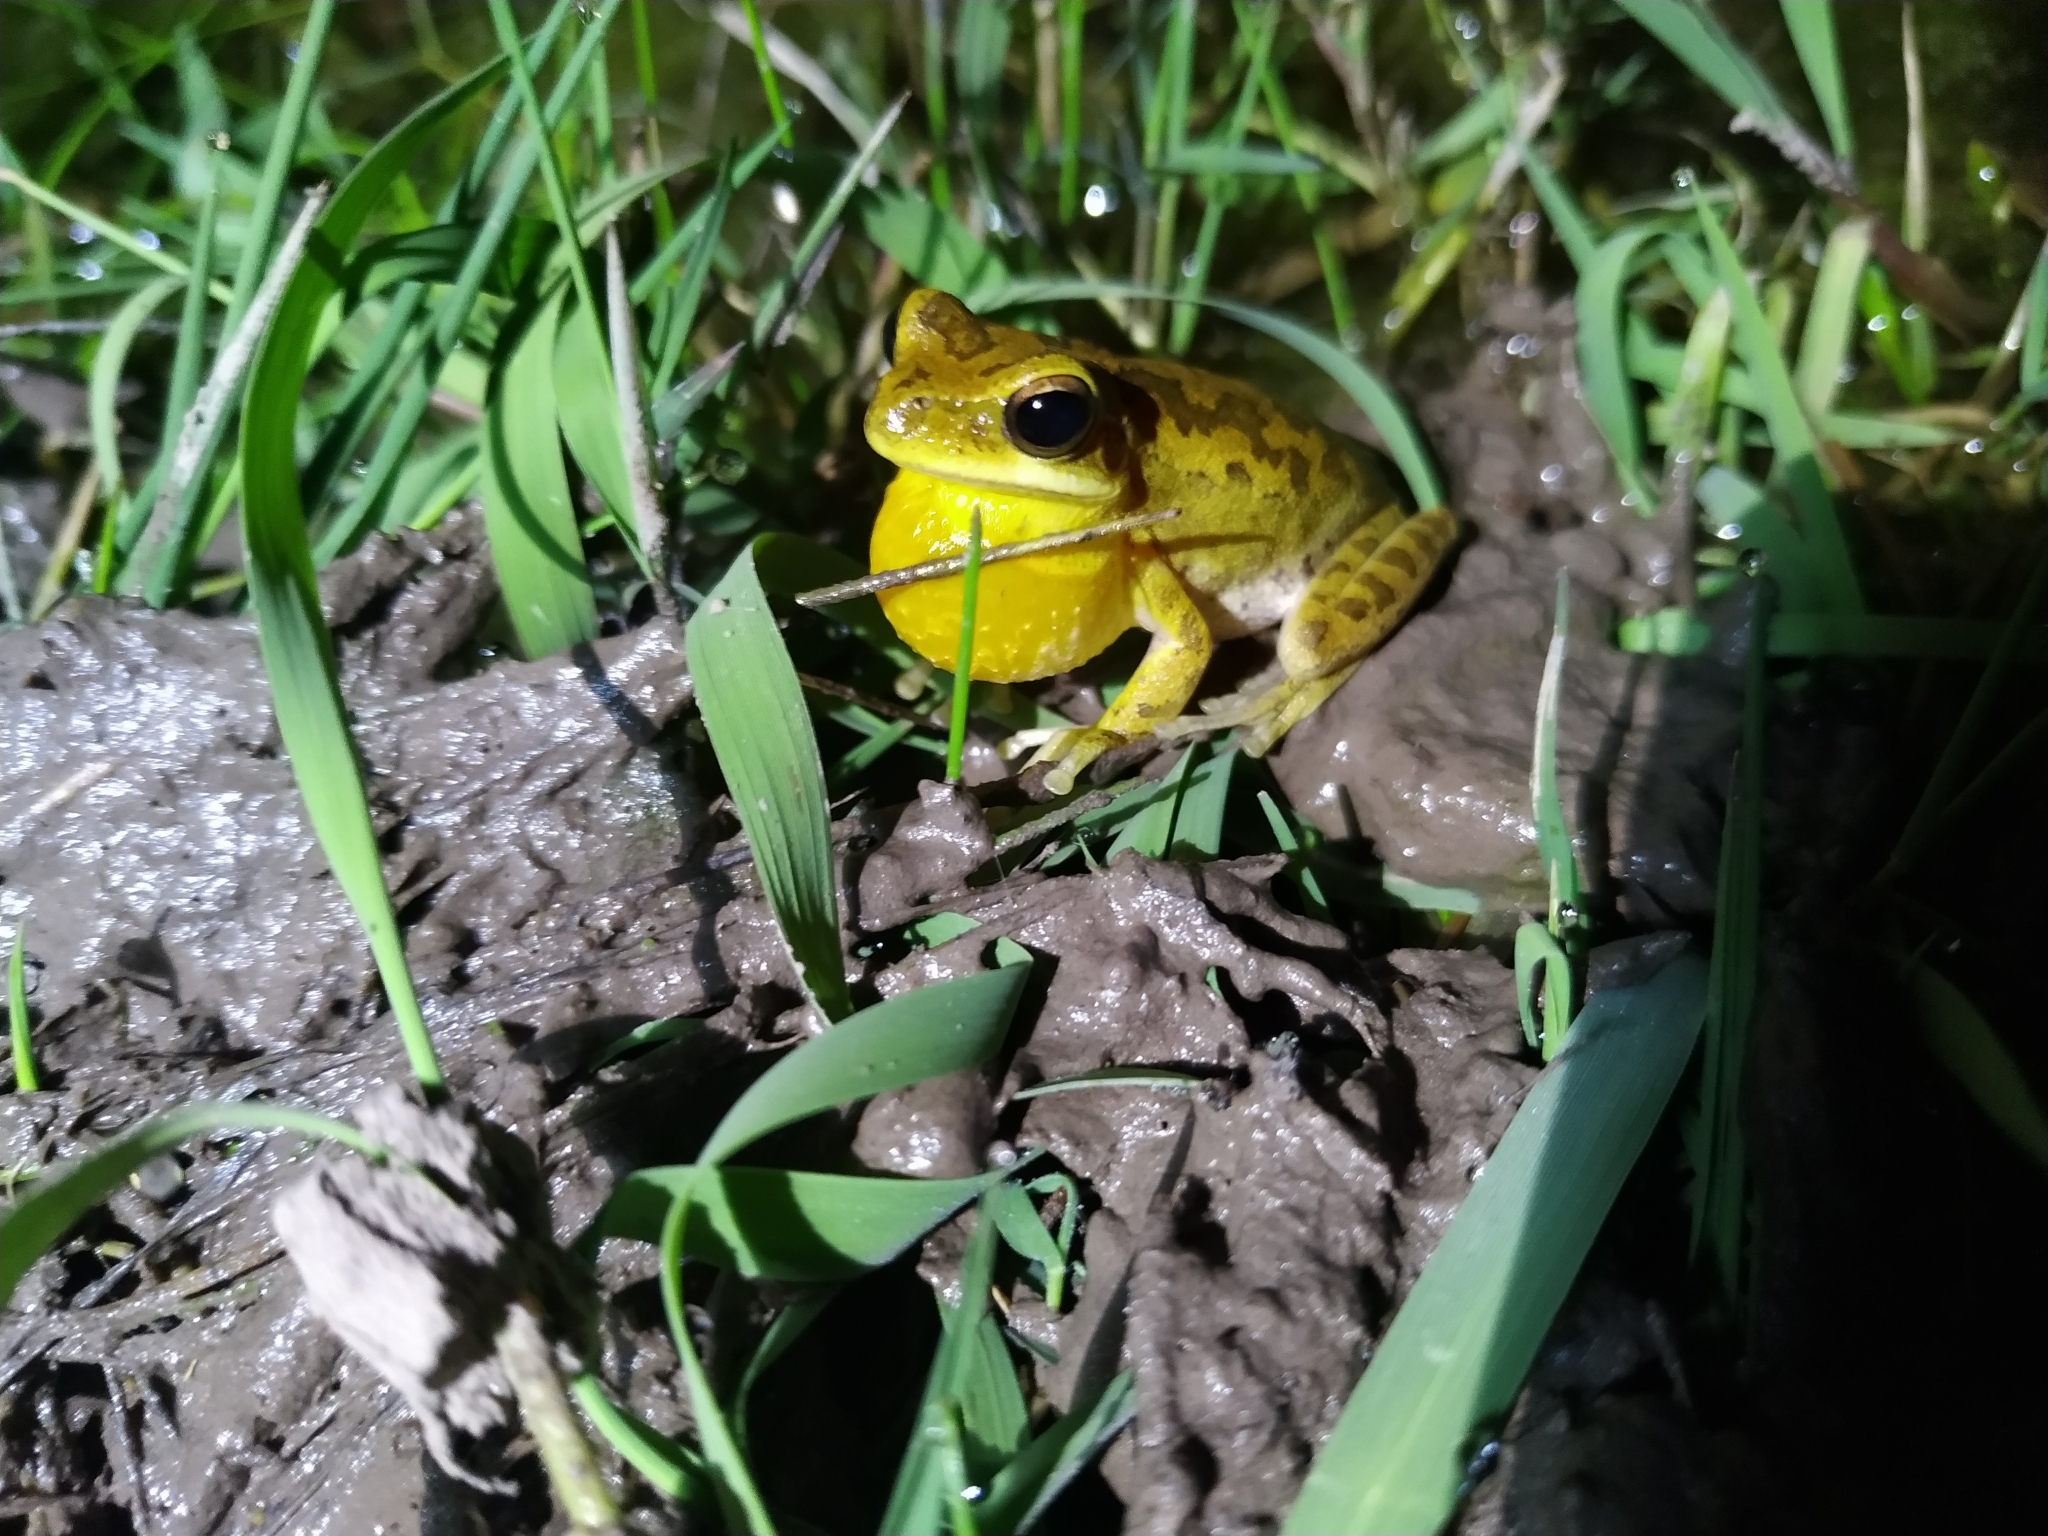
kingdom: Animalia
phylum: Chordata
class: Amphibia
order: Anura
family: Hylidae
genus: Boana
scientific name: Boana pulchella
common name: Montevideo treefrog
